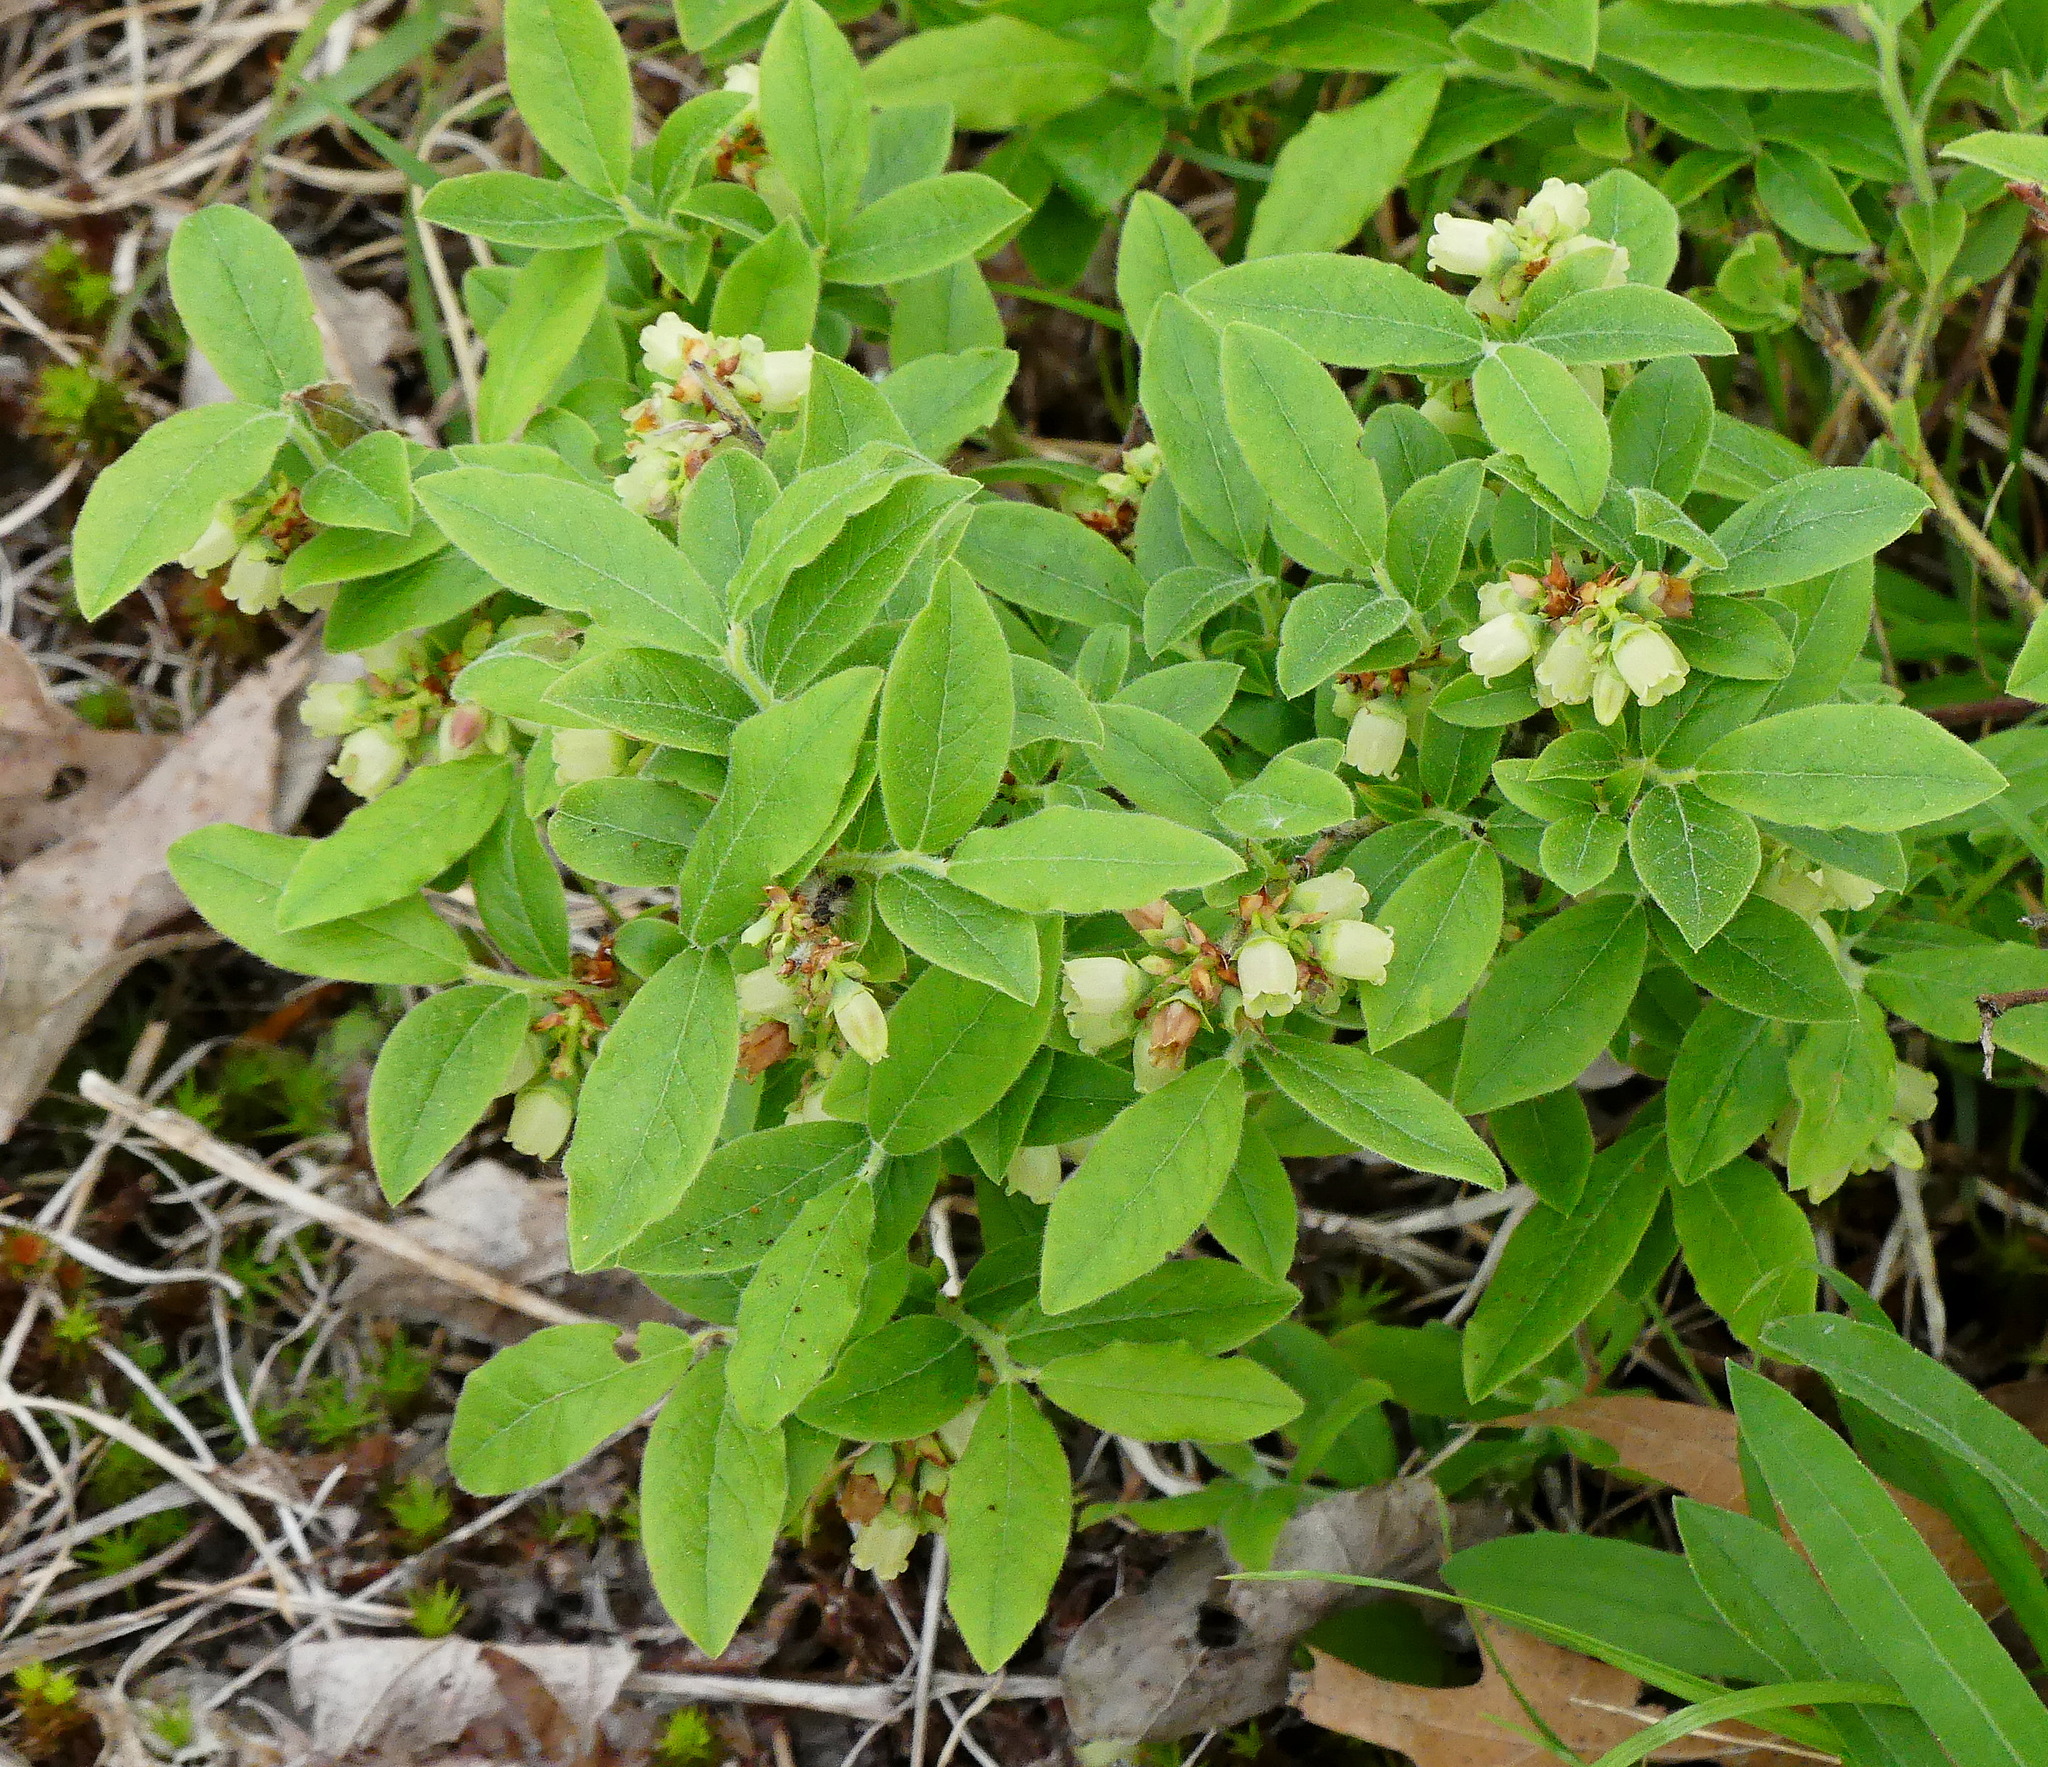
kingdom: Plantae
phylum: Tracheophyta
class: Magnoliopsida
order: Ericales
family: Ericaceae
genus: Vaccinium
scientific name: Vaccinium myrtilloides
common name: Canada blueberry
